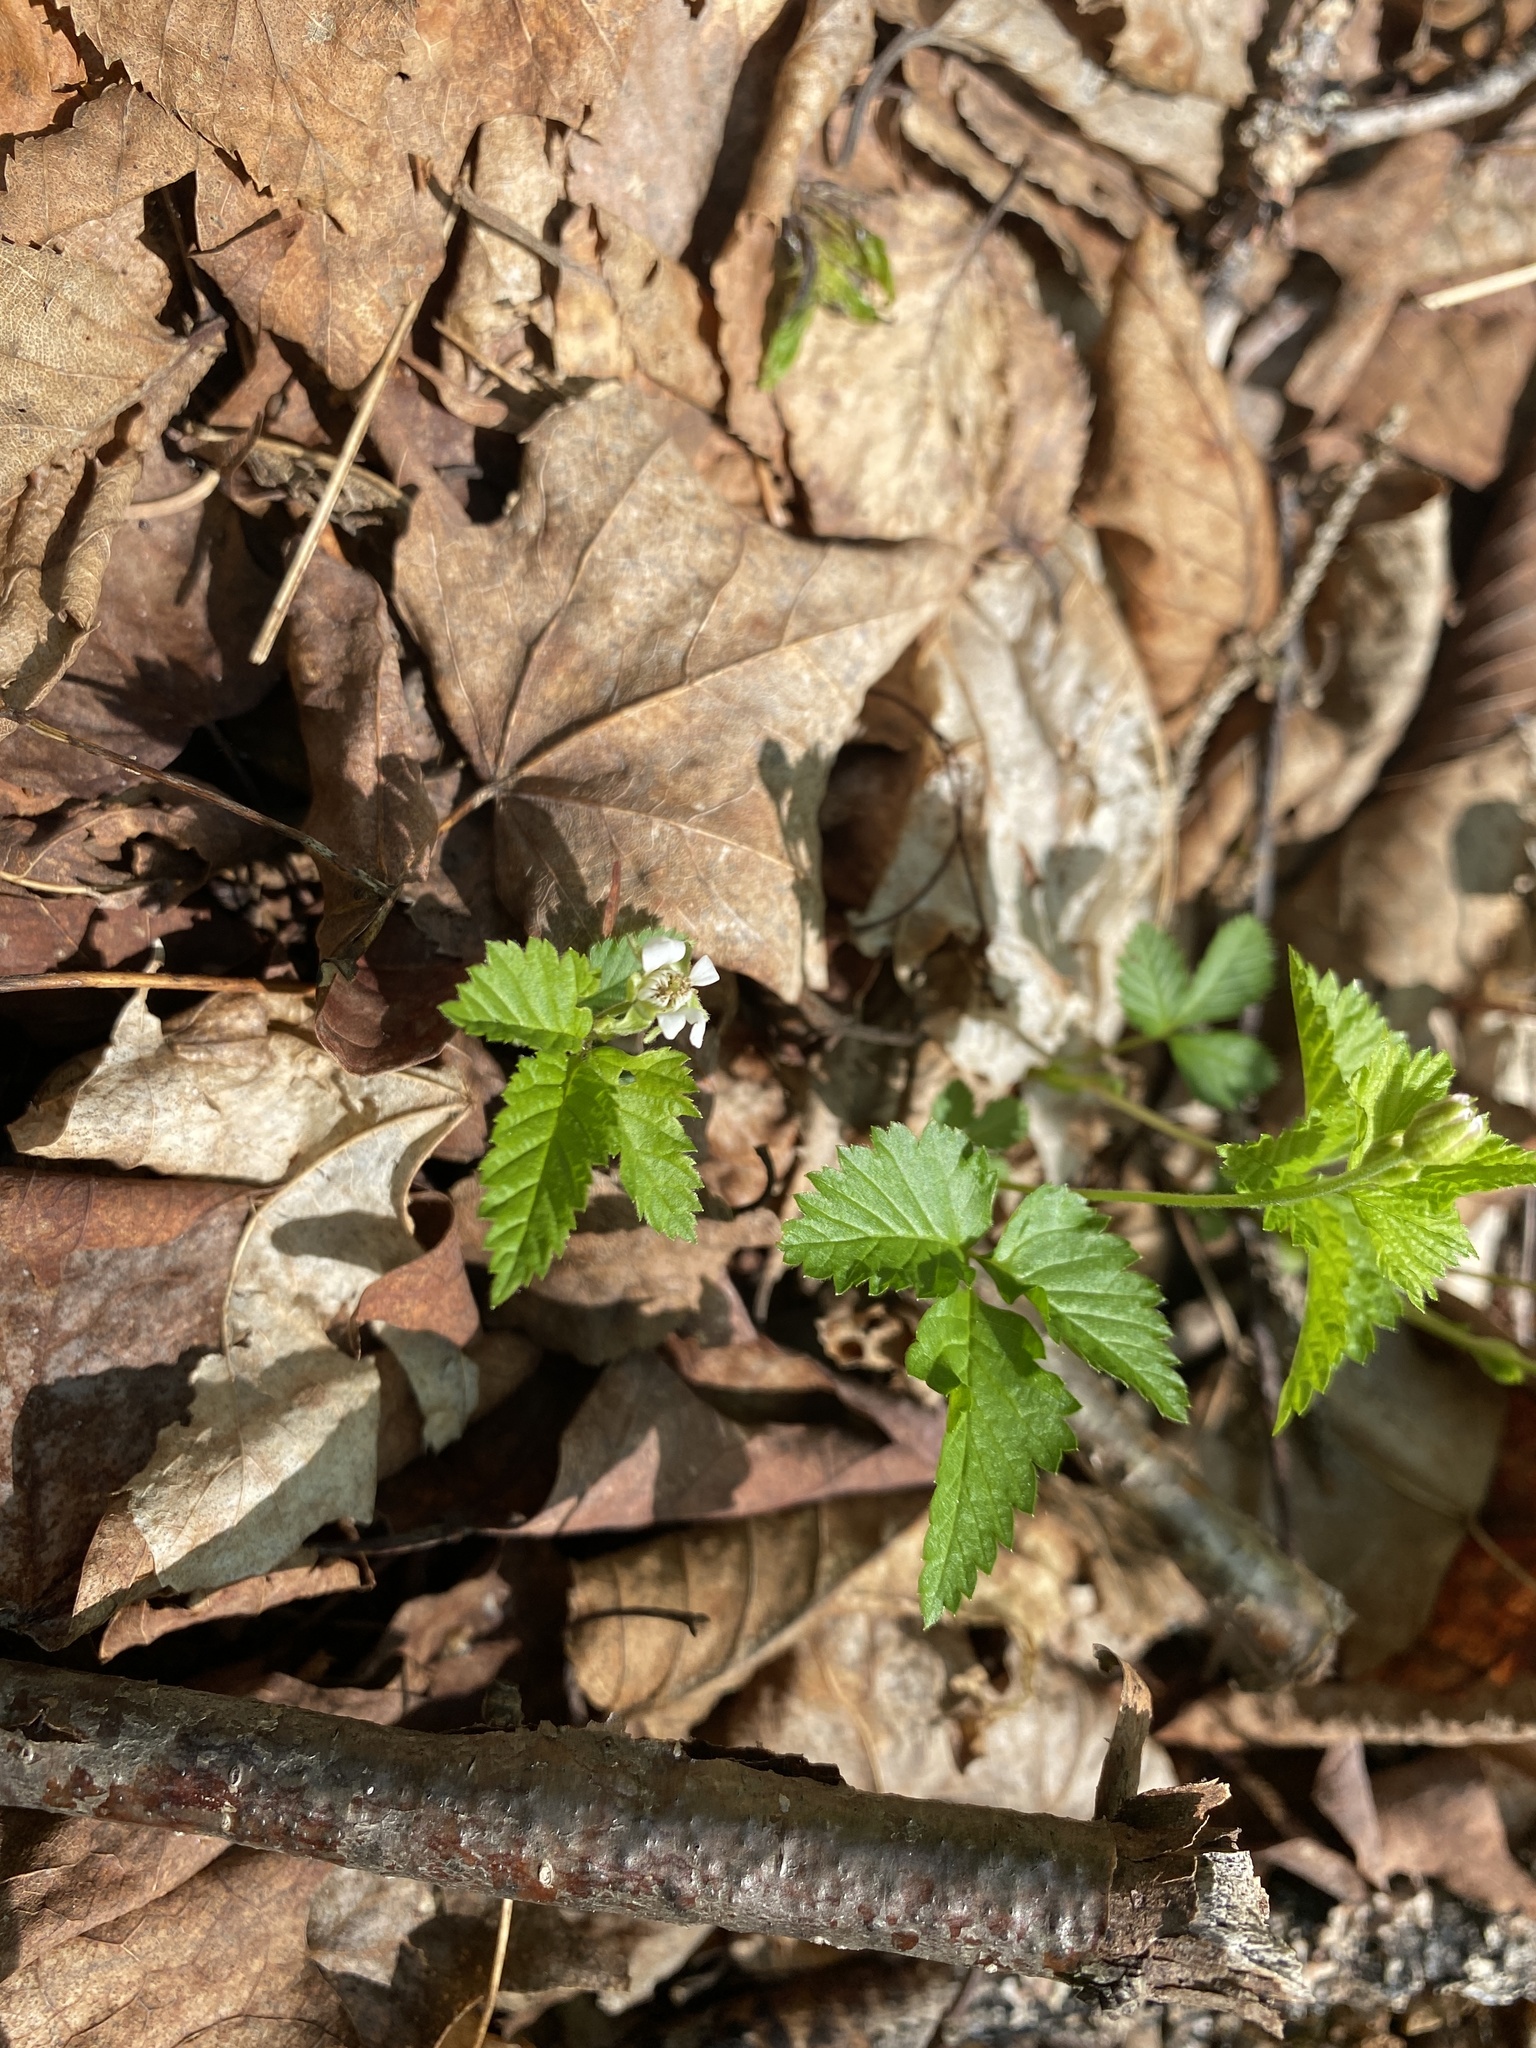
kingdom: Plantae
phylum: Tracheophyta
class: Magnoliopsida
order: Rosales
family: Rosaceae
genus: Rubus
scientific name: Rubus pubescens
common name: Dwarf raspberry
